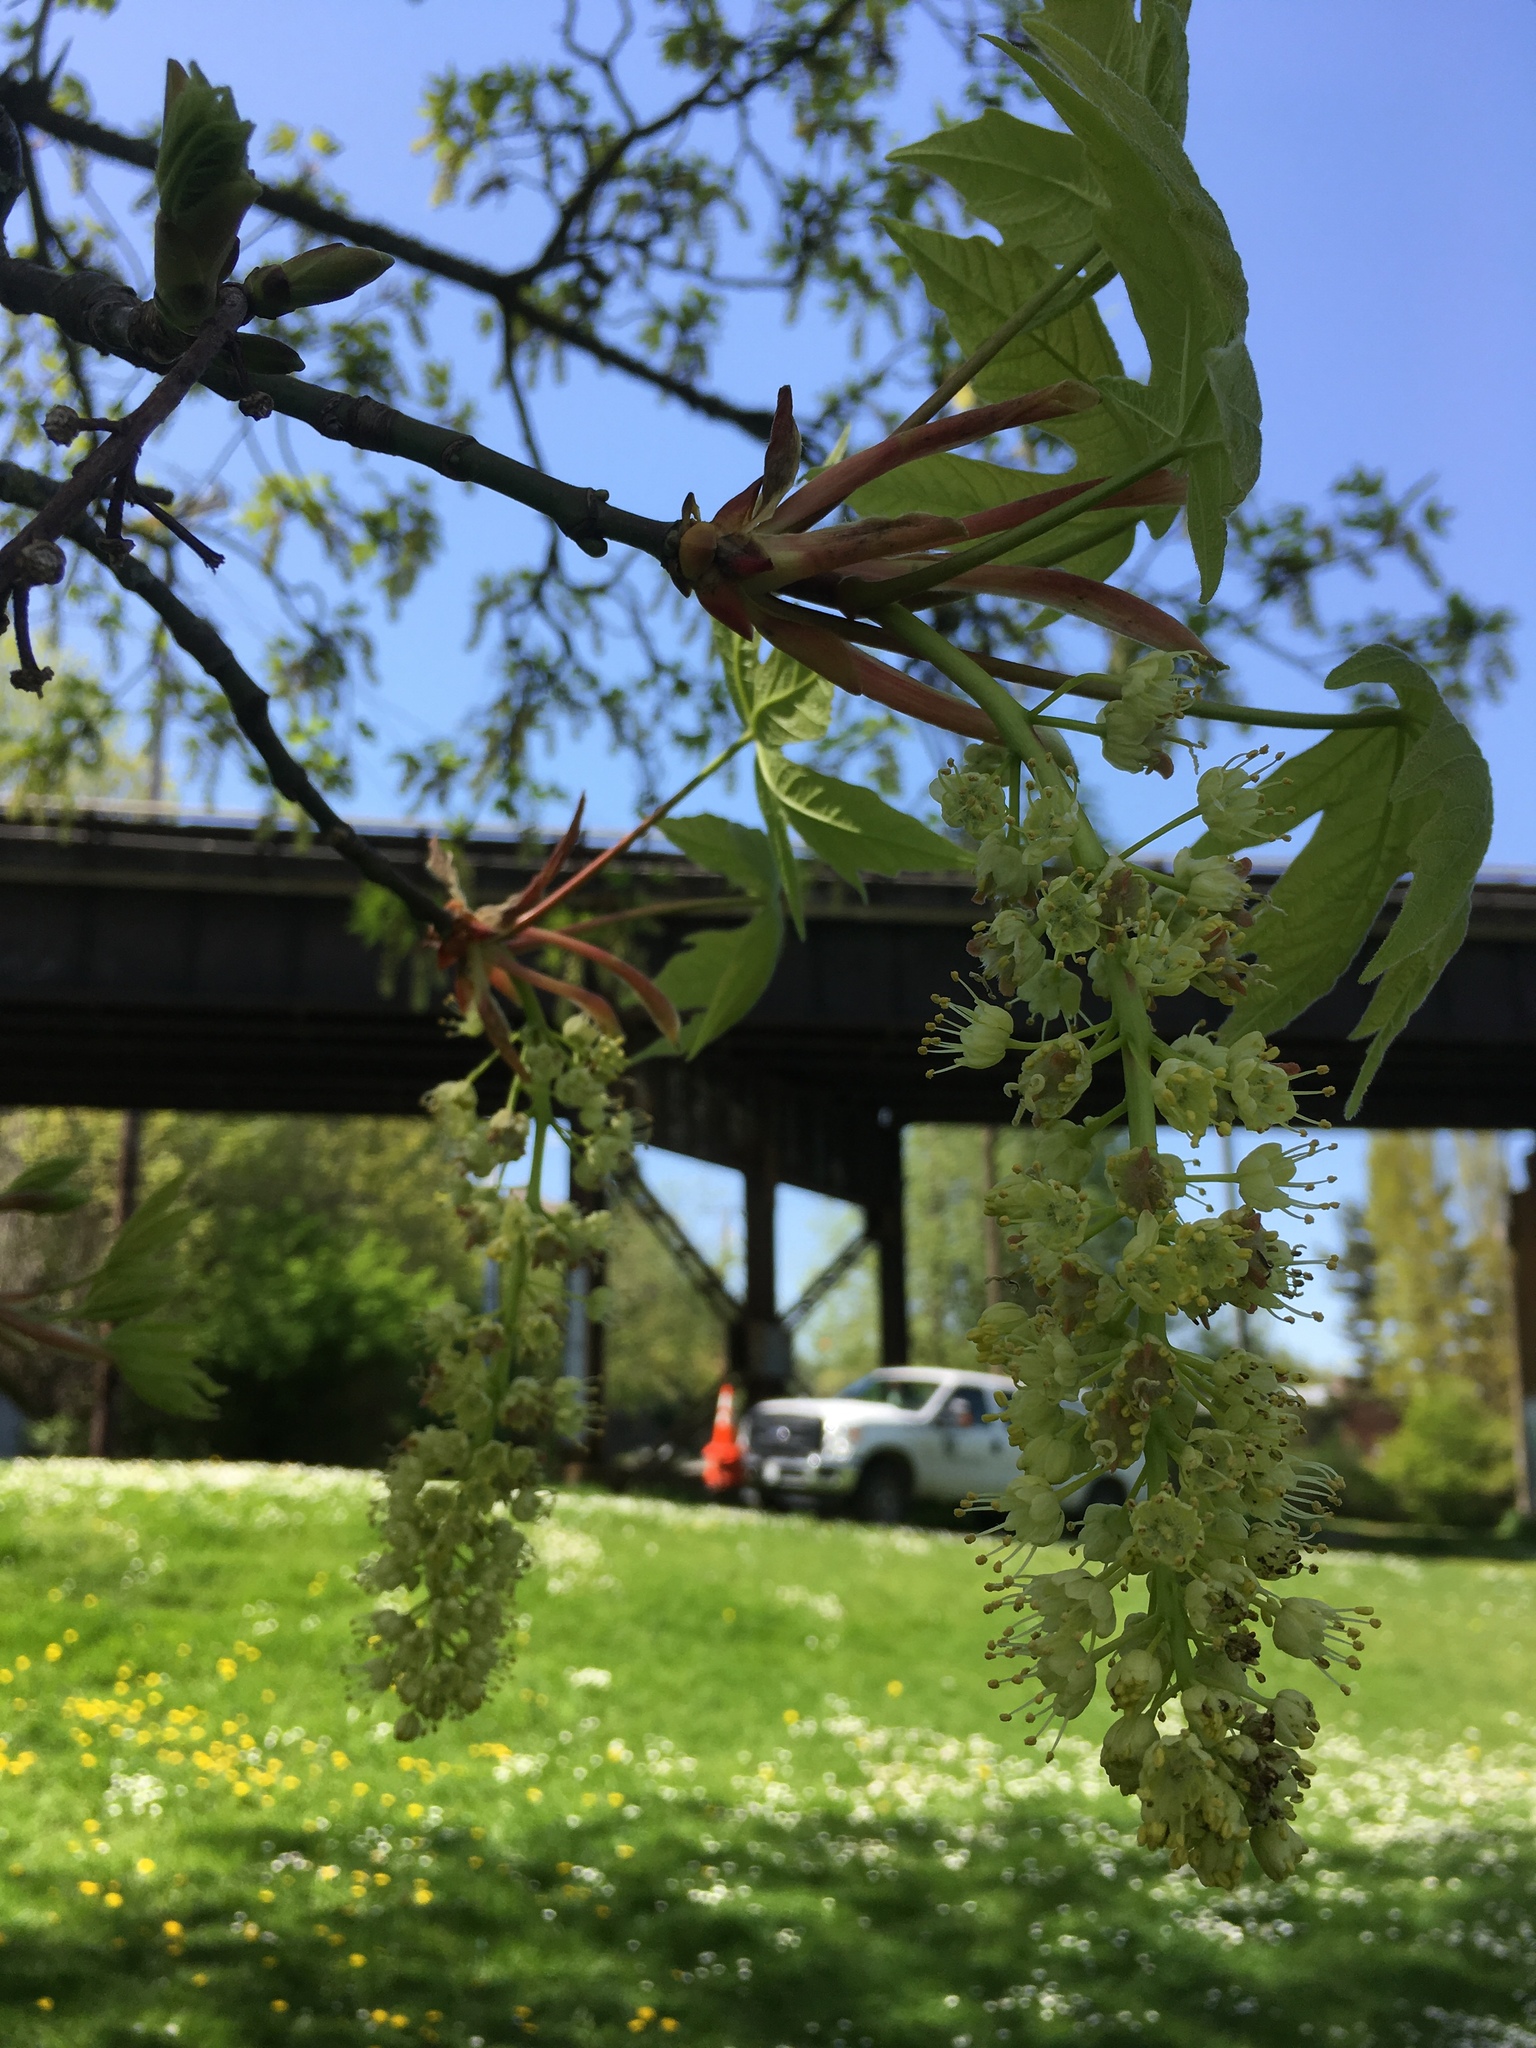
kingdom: Plantae
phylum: Tracheophyta
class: Magnoliopsida
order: Sapindales
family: Sapindaceae
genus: Acer
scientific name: Acer macrophyllum
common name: Oregon maple
